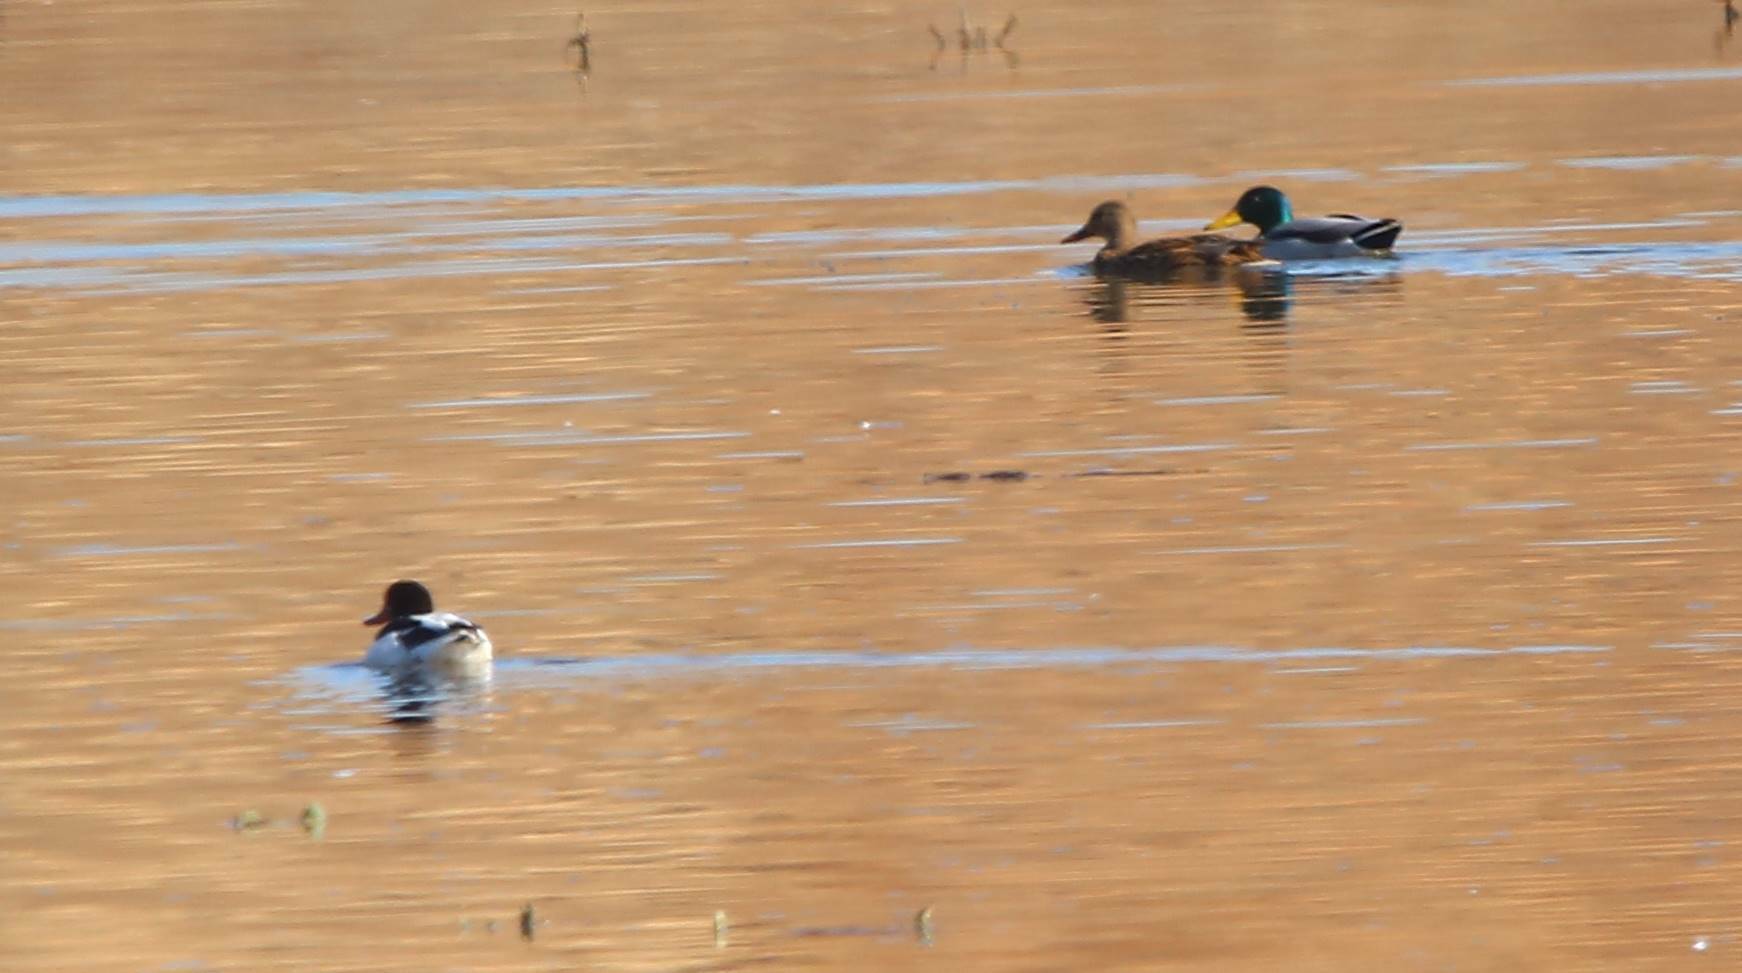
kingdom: Animalia
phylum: Chordata
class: Aves
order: Anseriformes
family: Anatidae
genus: Anas
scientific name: Anas platyrhynchos
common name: Mallard
